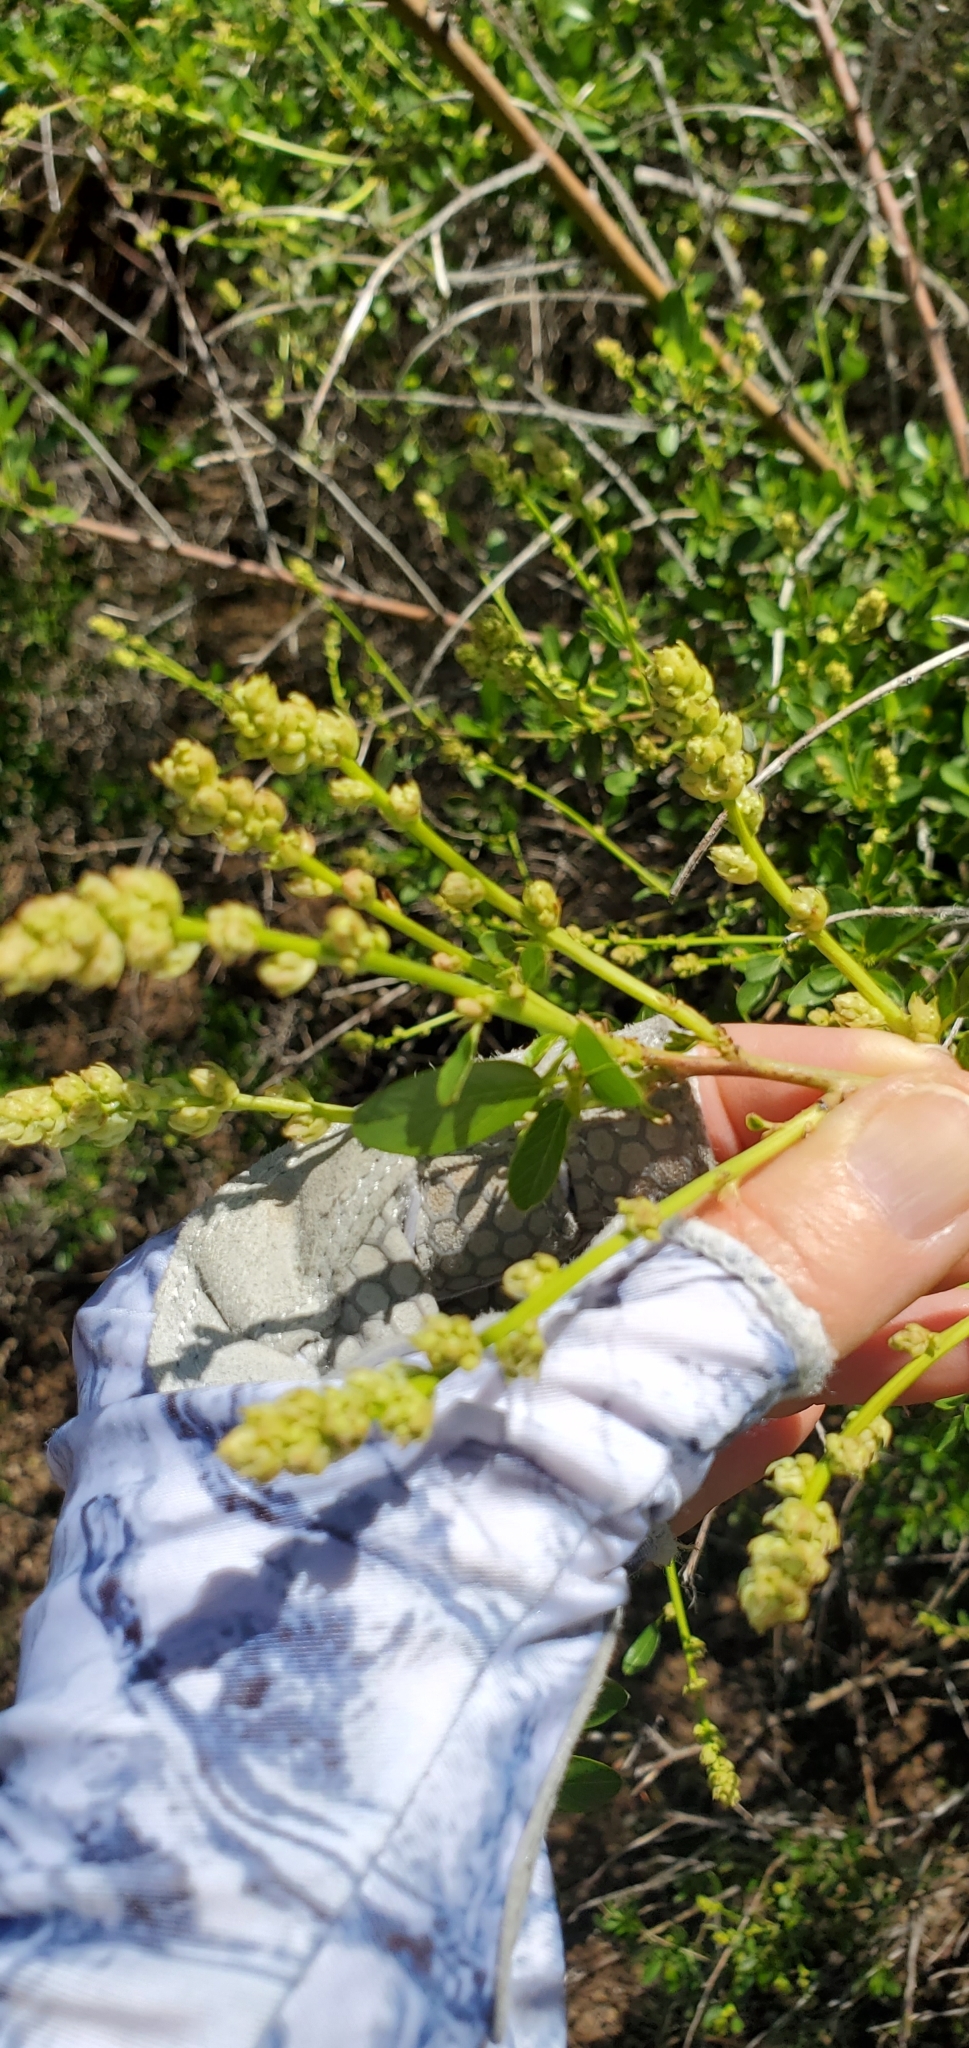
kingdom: Plantae
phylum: Tracheophyta
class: Magnoliopsida
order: Rosales
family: Rhamnaceae
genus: Ceanothus
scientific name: Ceanothus palmeri
